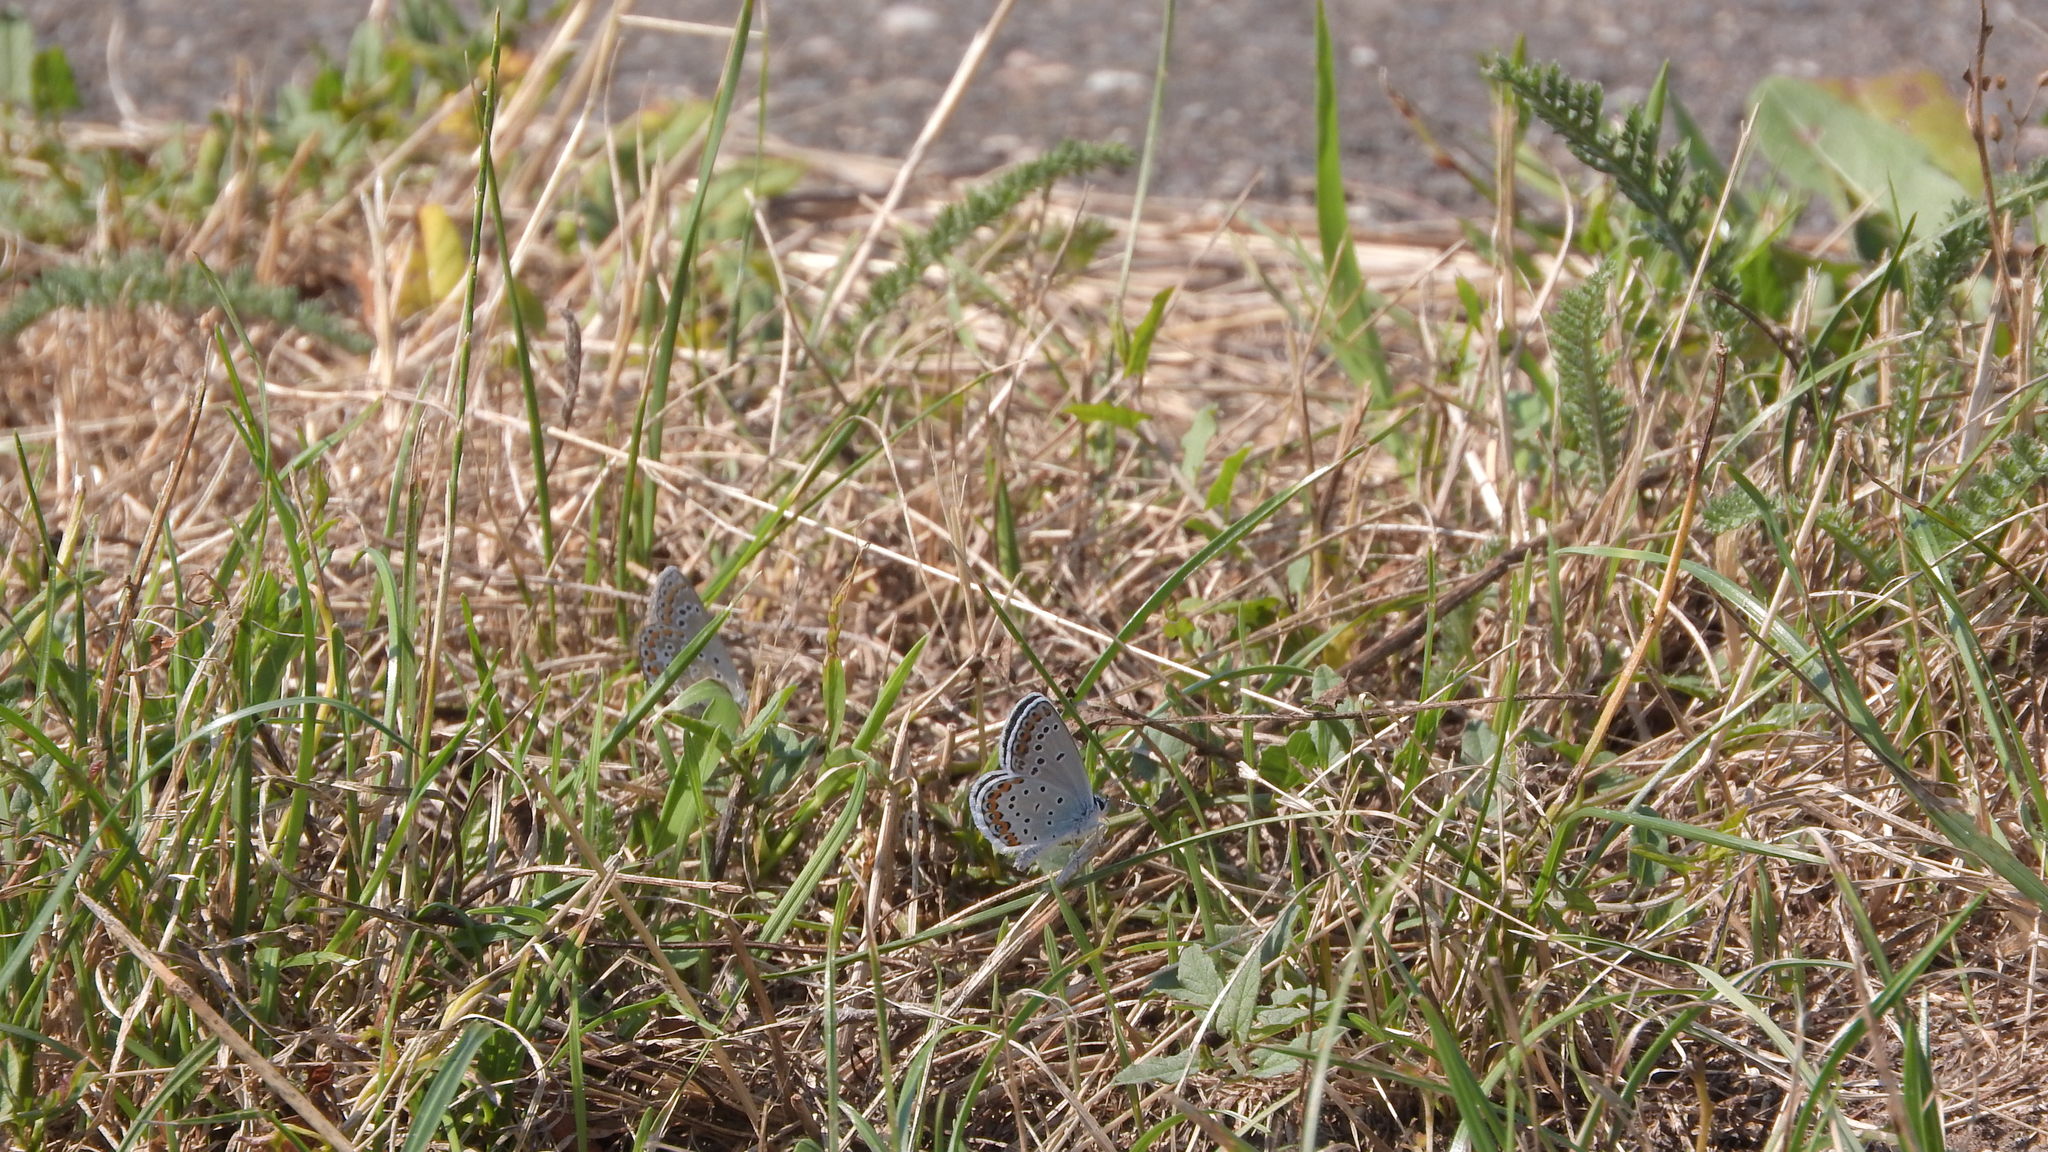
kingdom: Animalia
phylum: Arthropoda
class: Insecta
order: Lepidoptera
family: Lycaenidae
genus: Plebejus
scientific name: Plebejus argyrognomon
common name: Reverdin's blue
